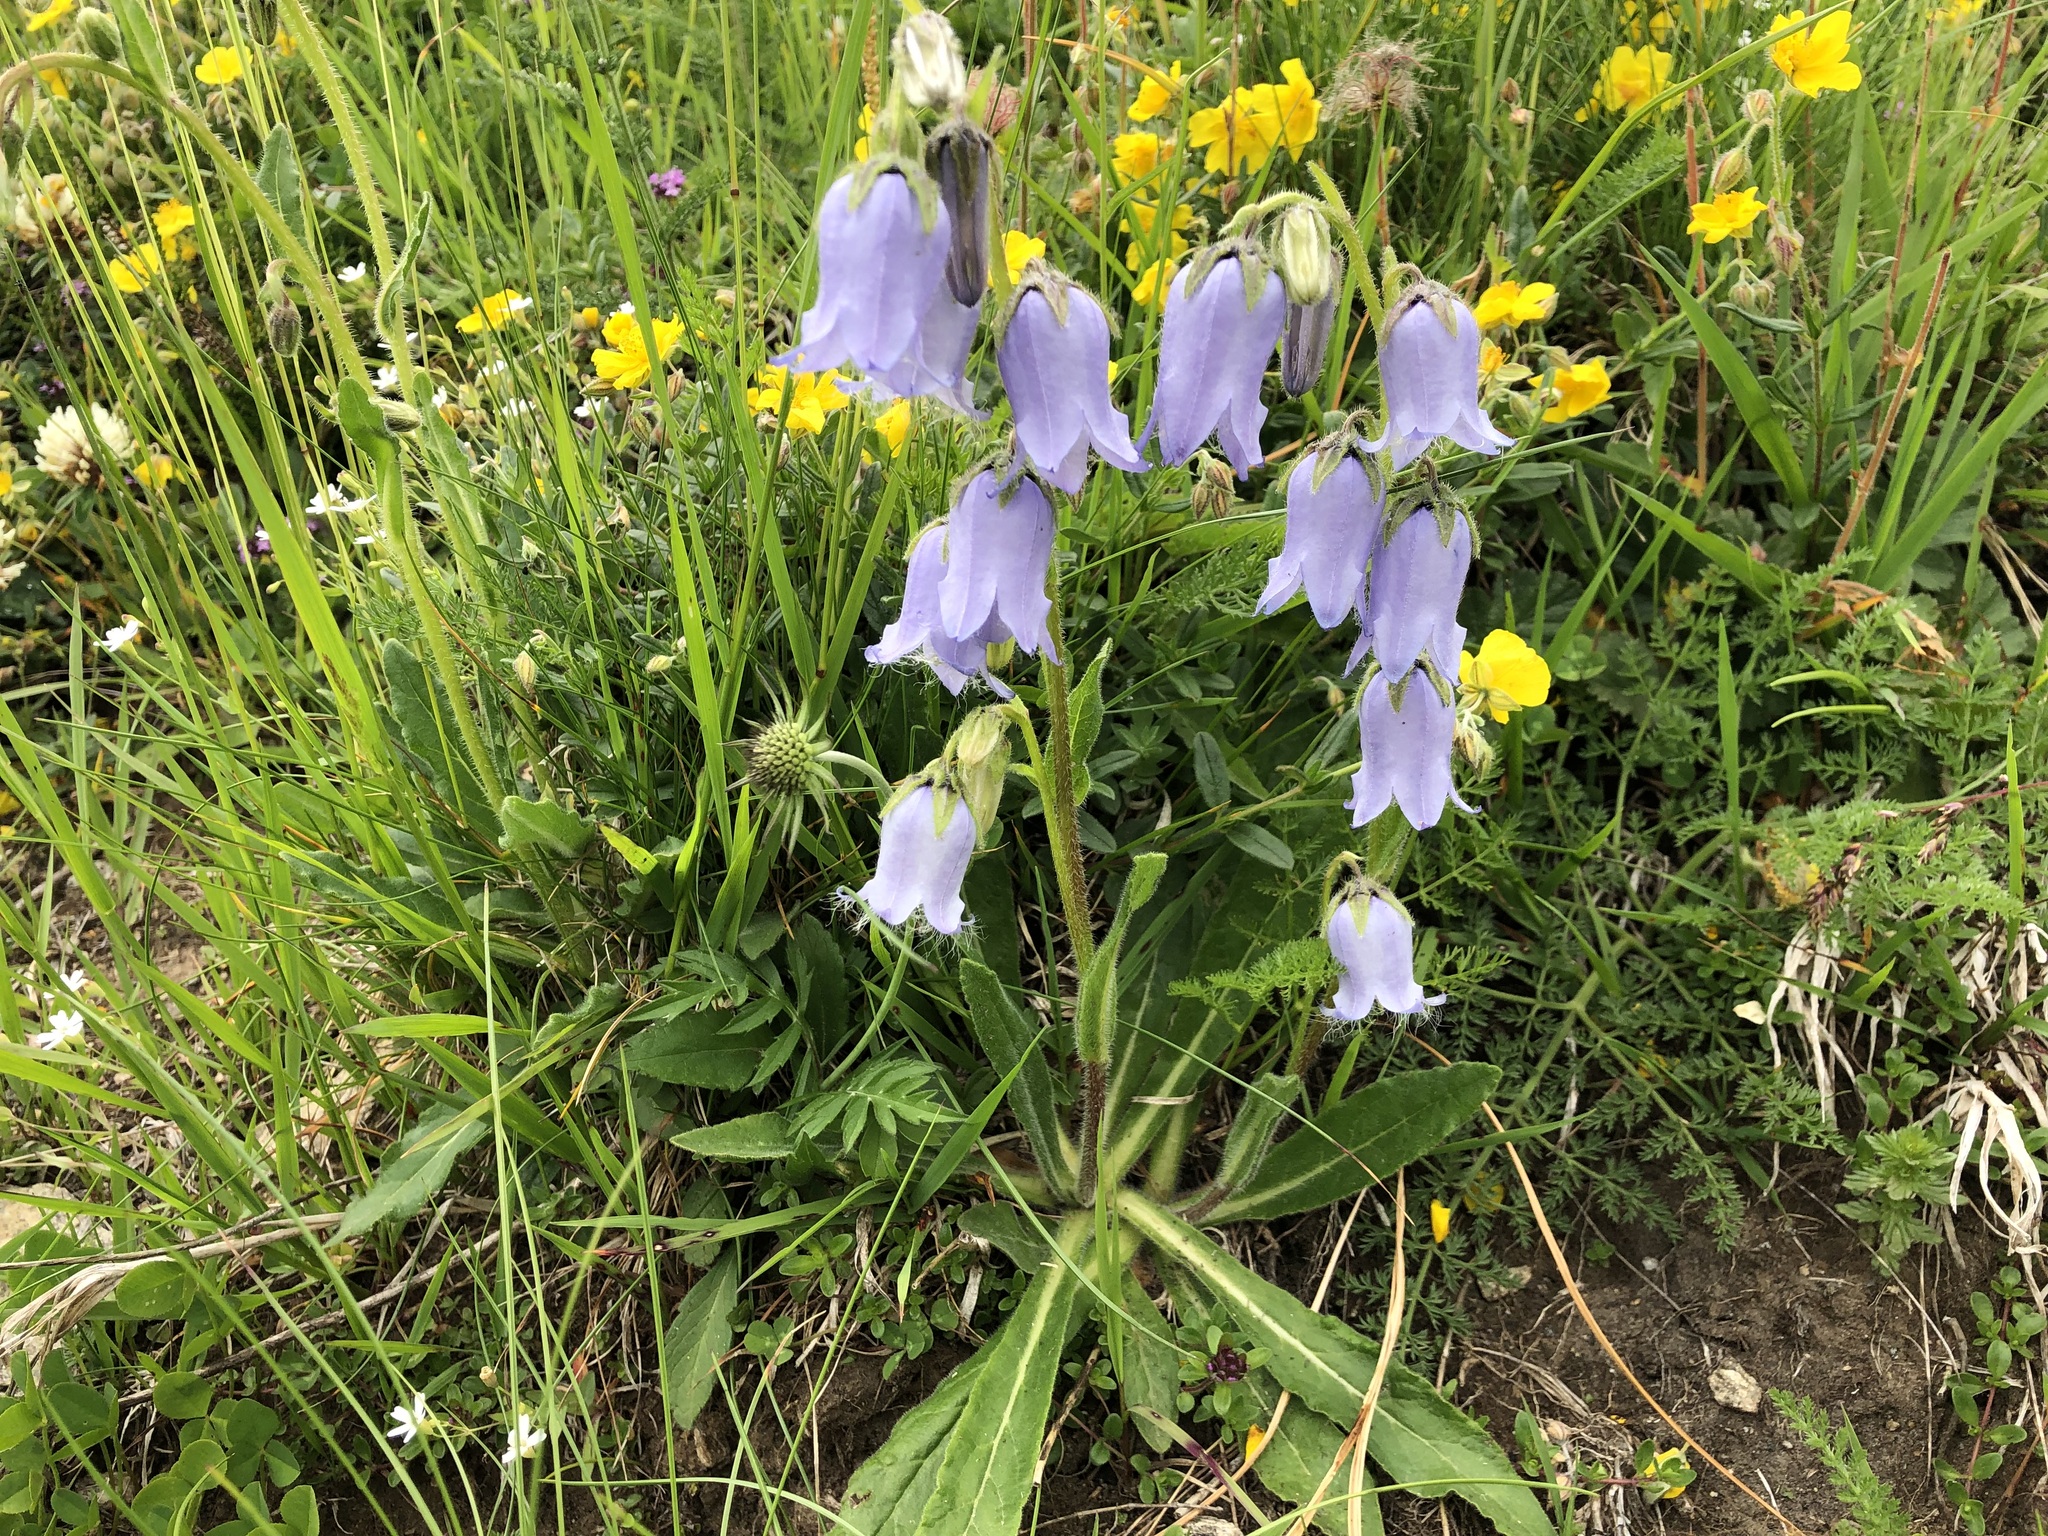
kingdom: Plantae
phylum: Tracheophyta
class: Magnoliopsida
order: Asterales
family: Campanulaceae
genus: Campanula
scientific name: Campanula barbata
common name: Bearded bellflower
